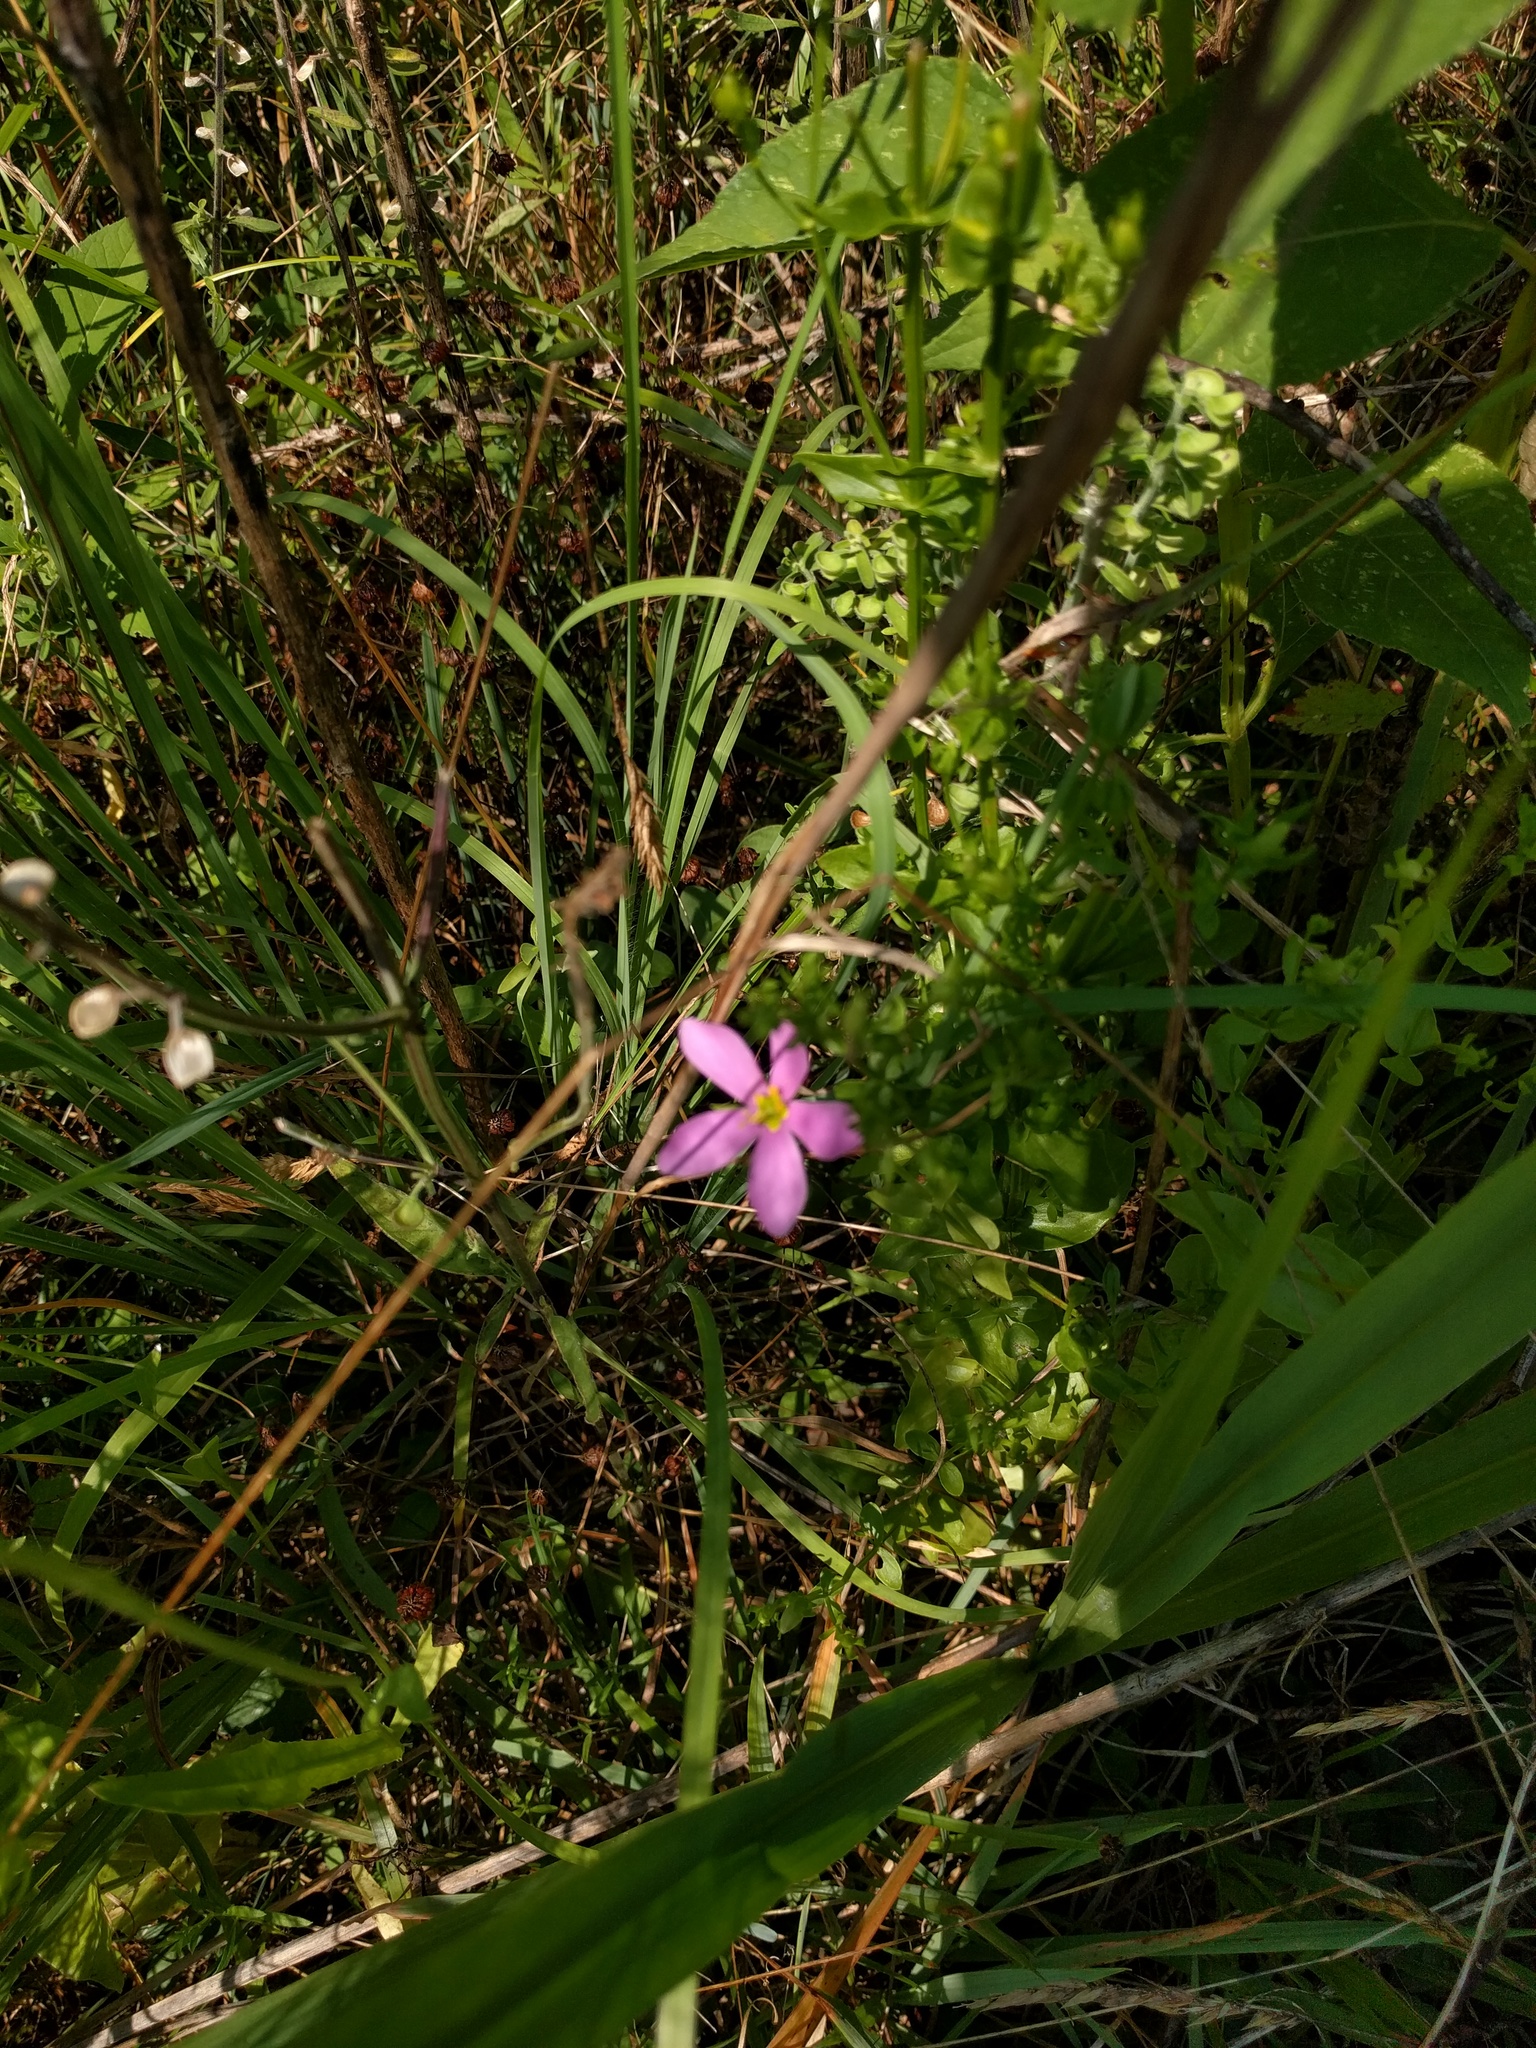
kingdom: Plantae
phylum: Tracheophyta
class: Magnoliopsida
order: Gentianales
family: Gentianaceae
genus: Sabatia
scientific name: Sabatia angularis
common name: Rose-pink
